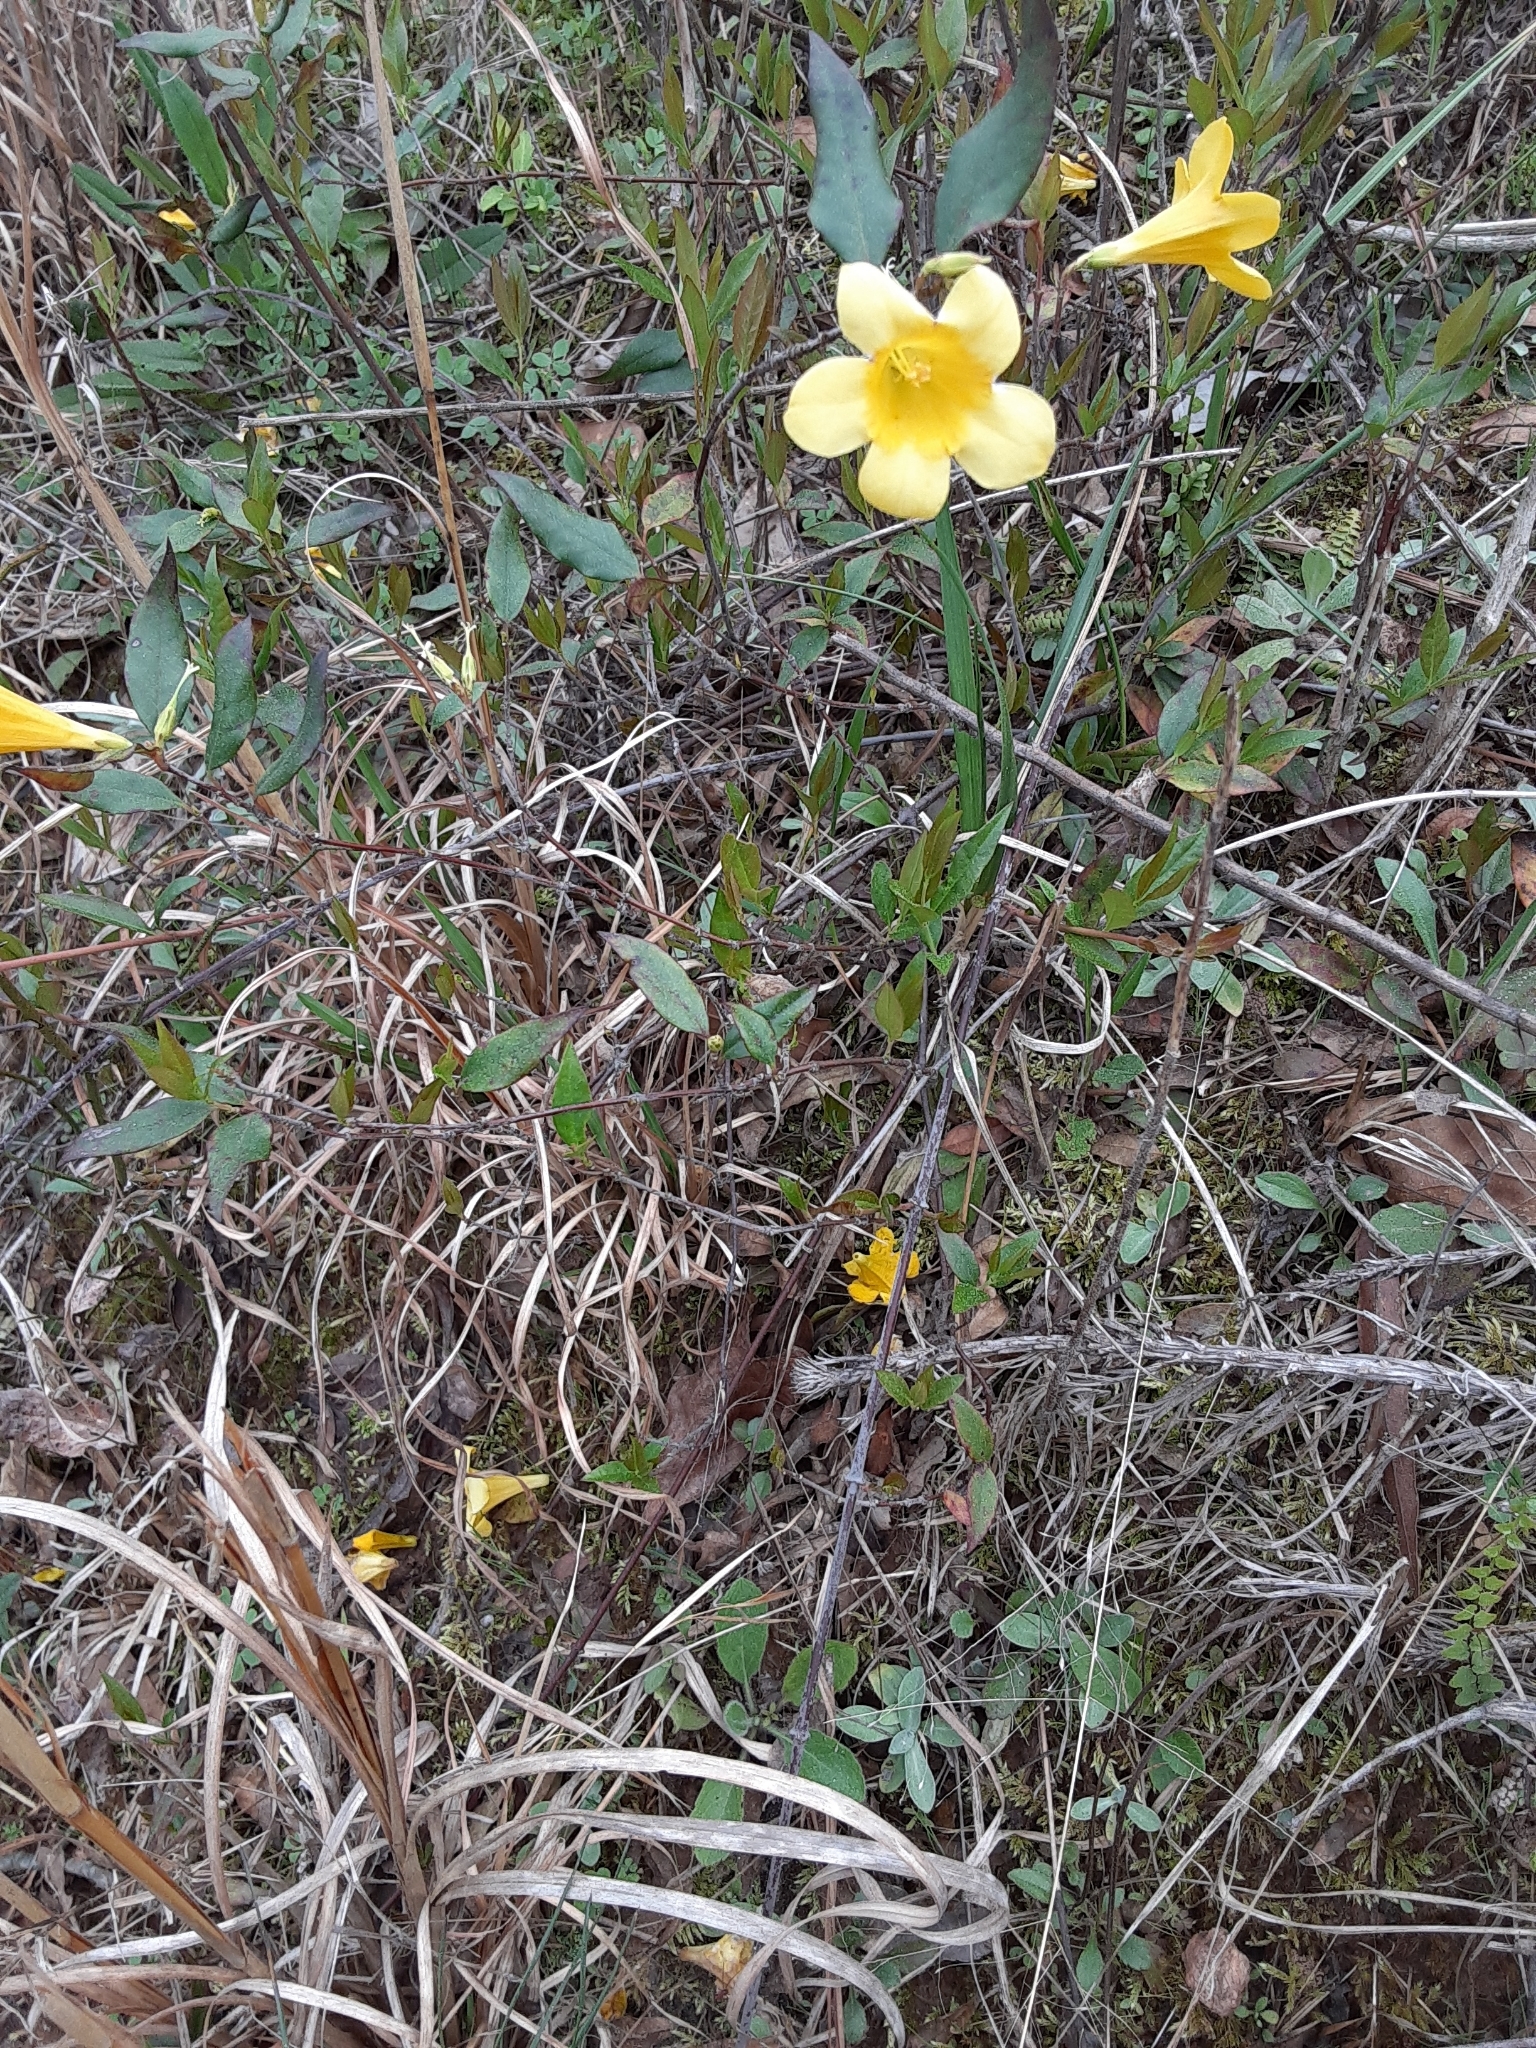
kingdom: Plantae
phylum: Tracheophyta
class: Magnoliopsida
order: Gentianales
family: Gelsemiaceae
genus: Gelsemium
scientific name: Gelsemium sempervirens
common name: Carolina-jasmine
